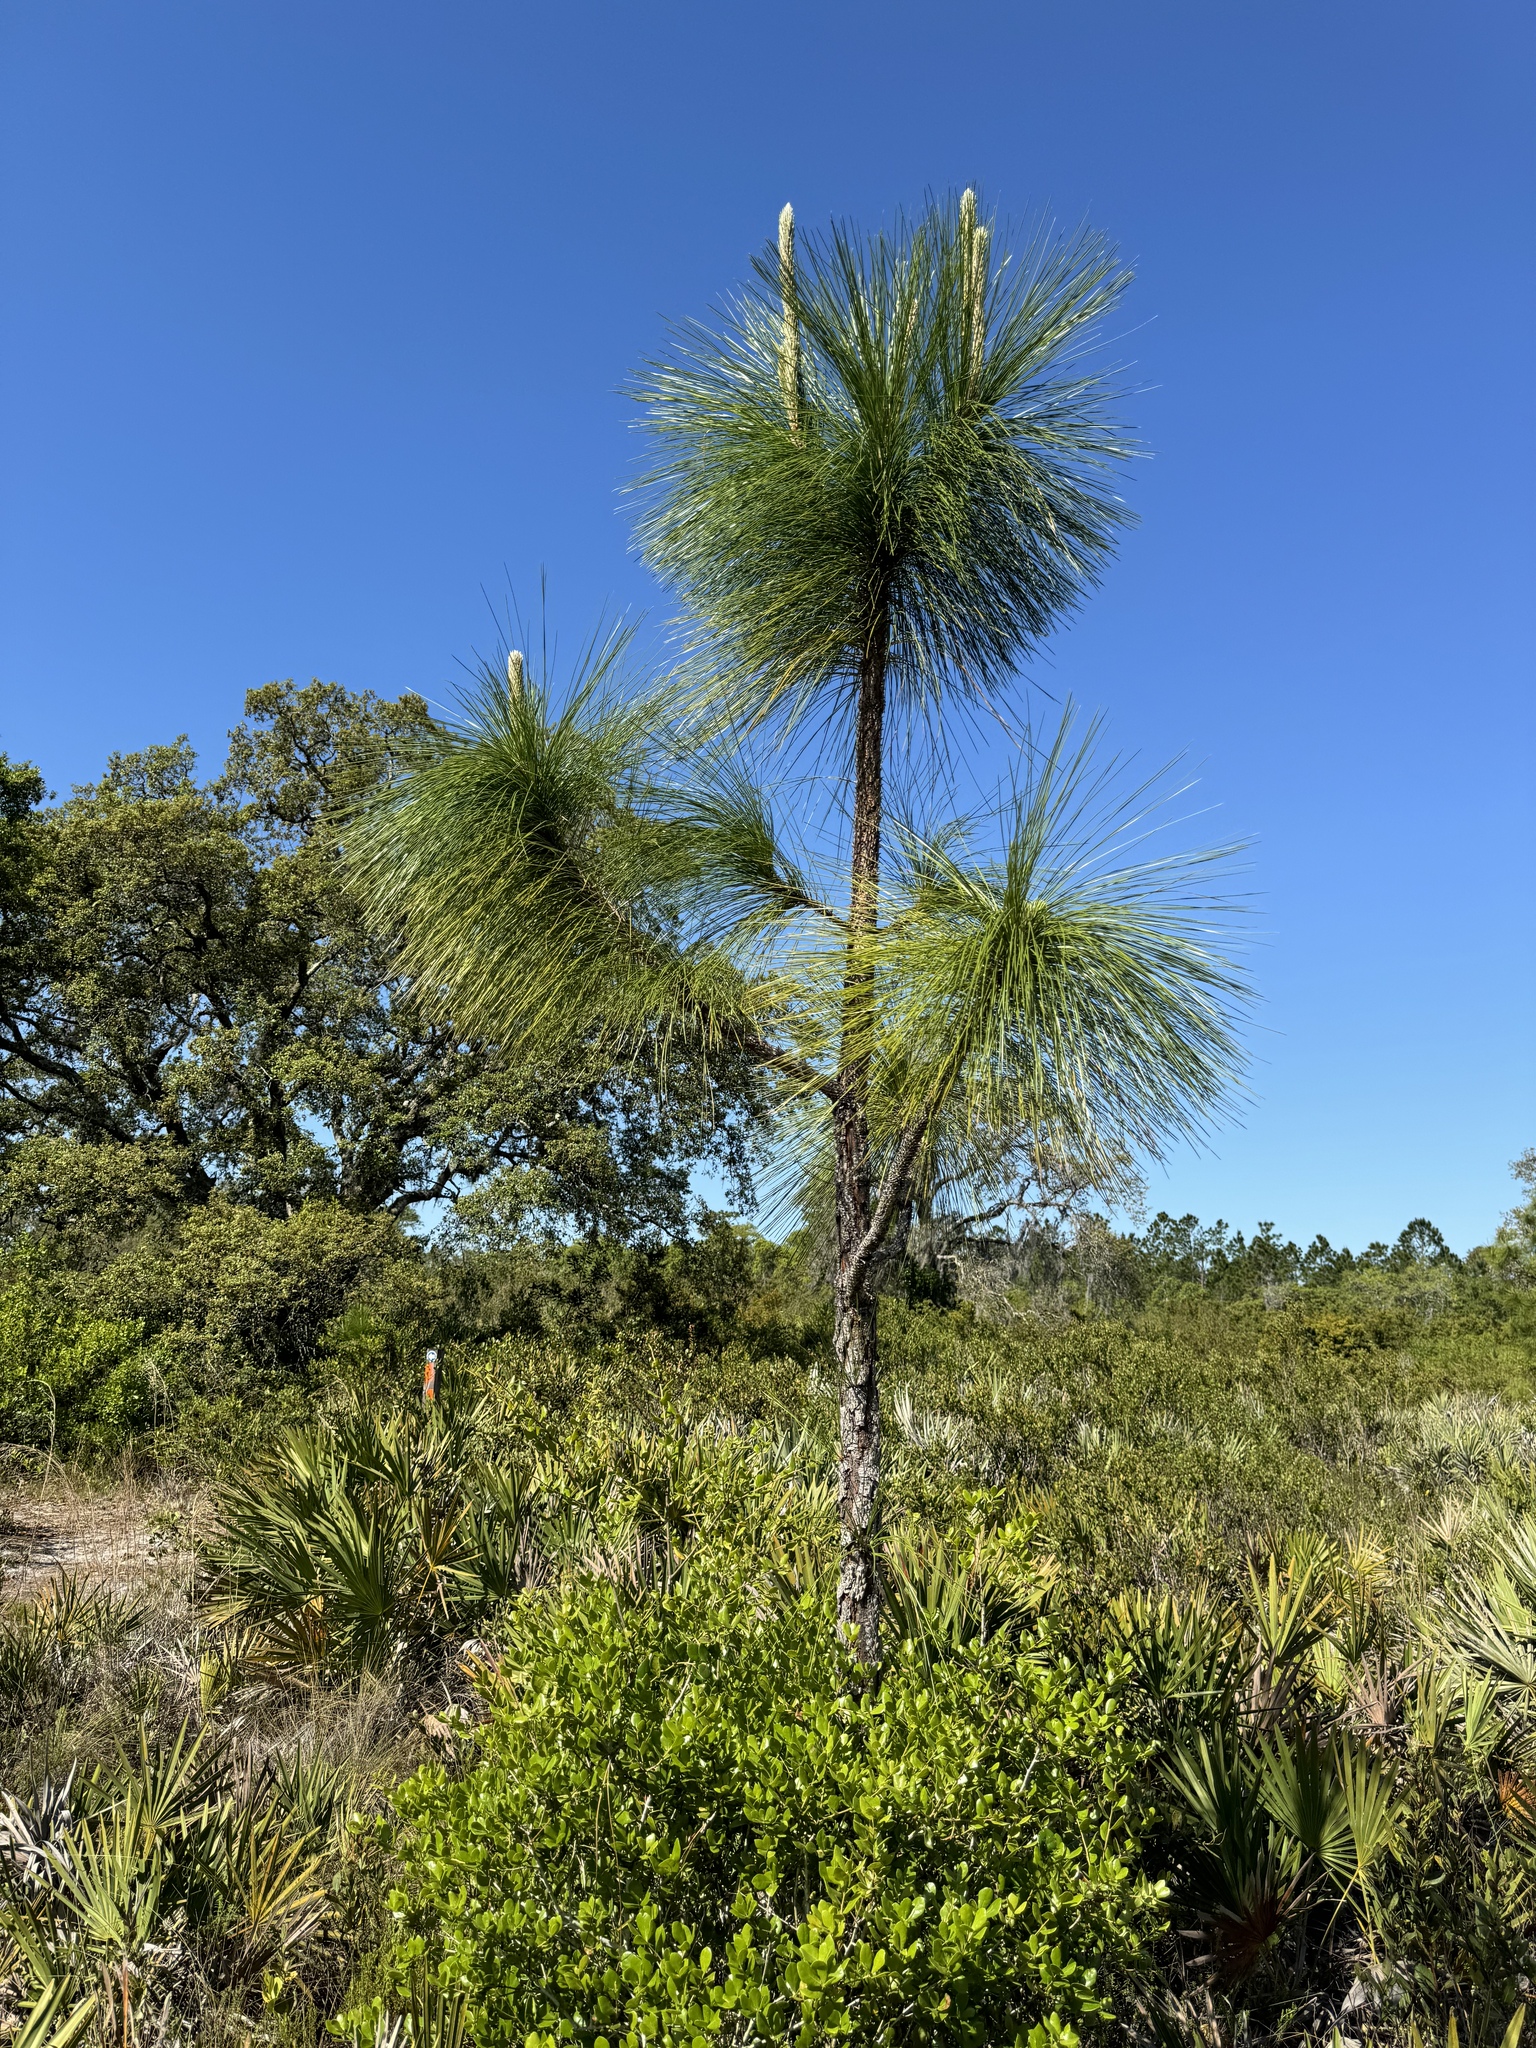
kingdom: Plantae
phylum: Tracheophyta
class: Pinopsida
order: Pinales
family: Pinaceae
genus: Pinus
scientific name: Pinus palustris
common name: Longleaf pine
